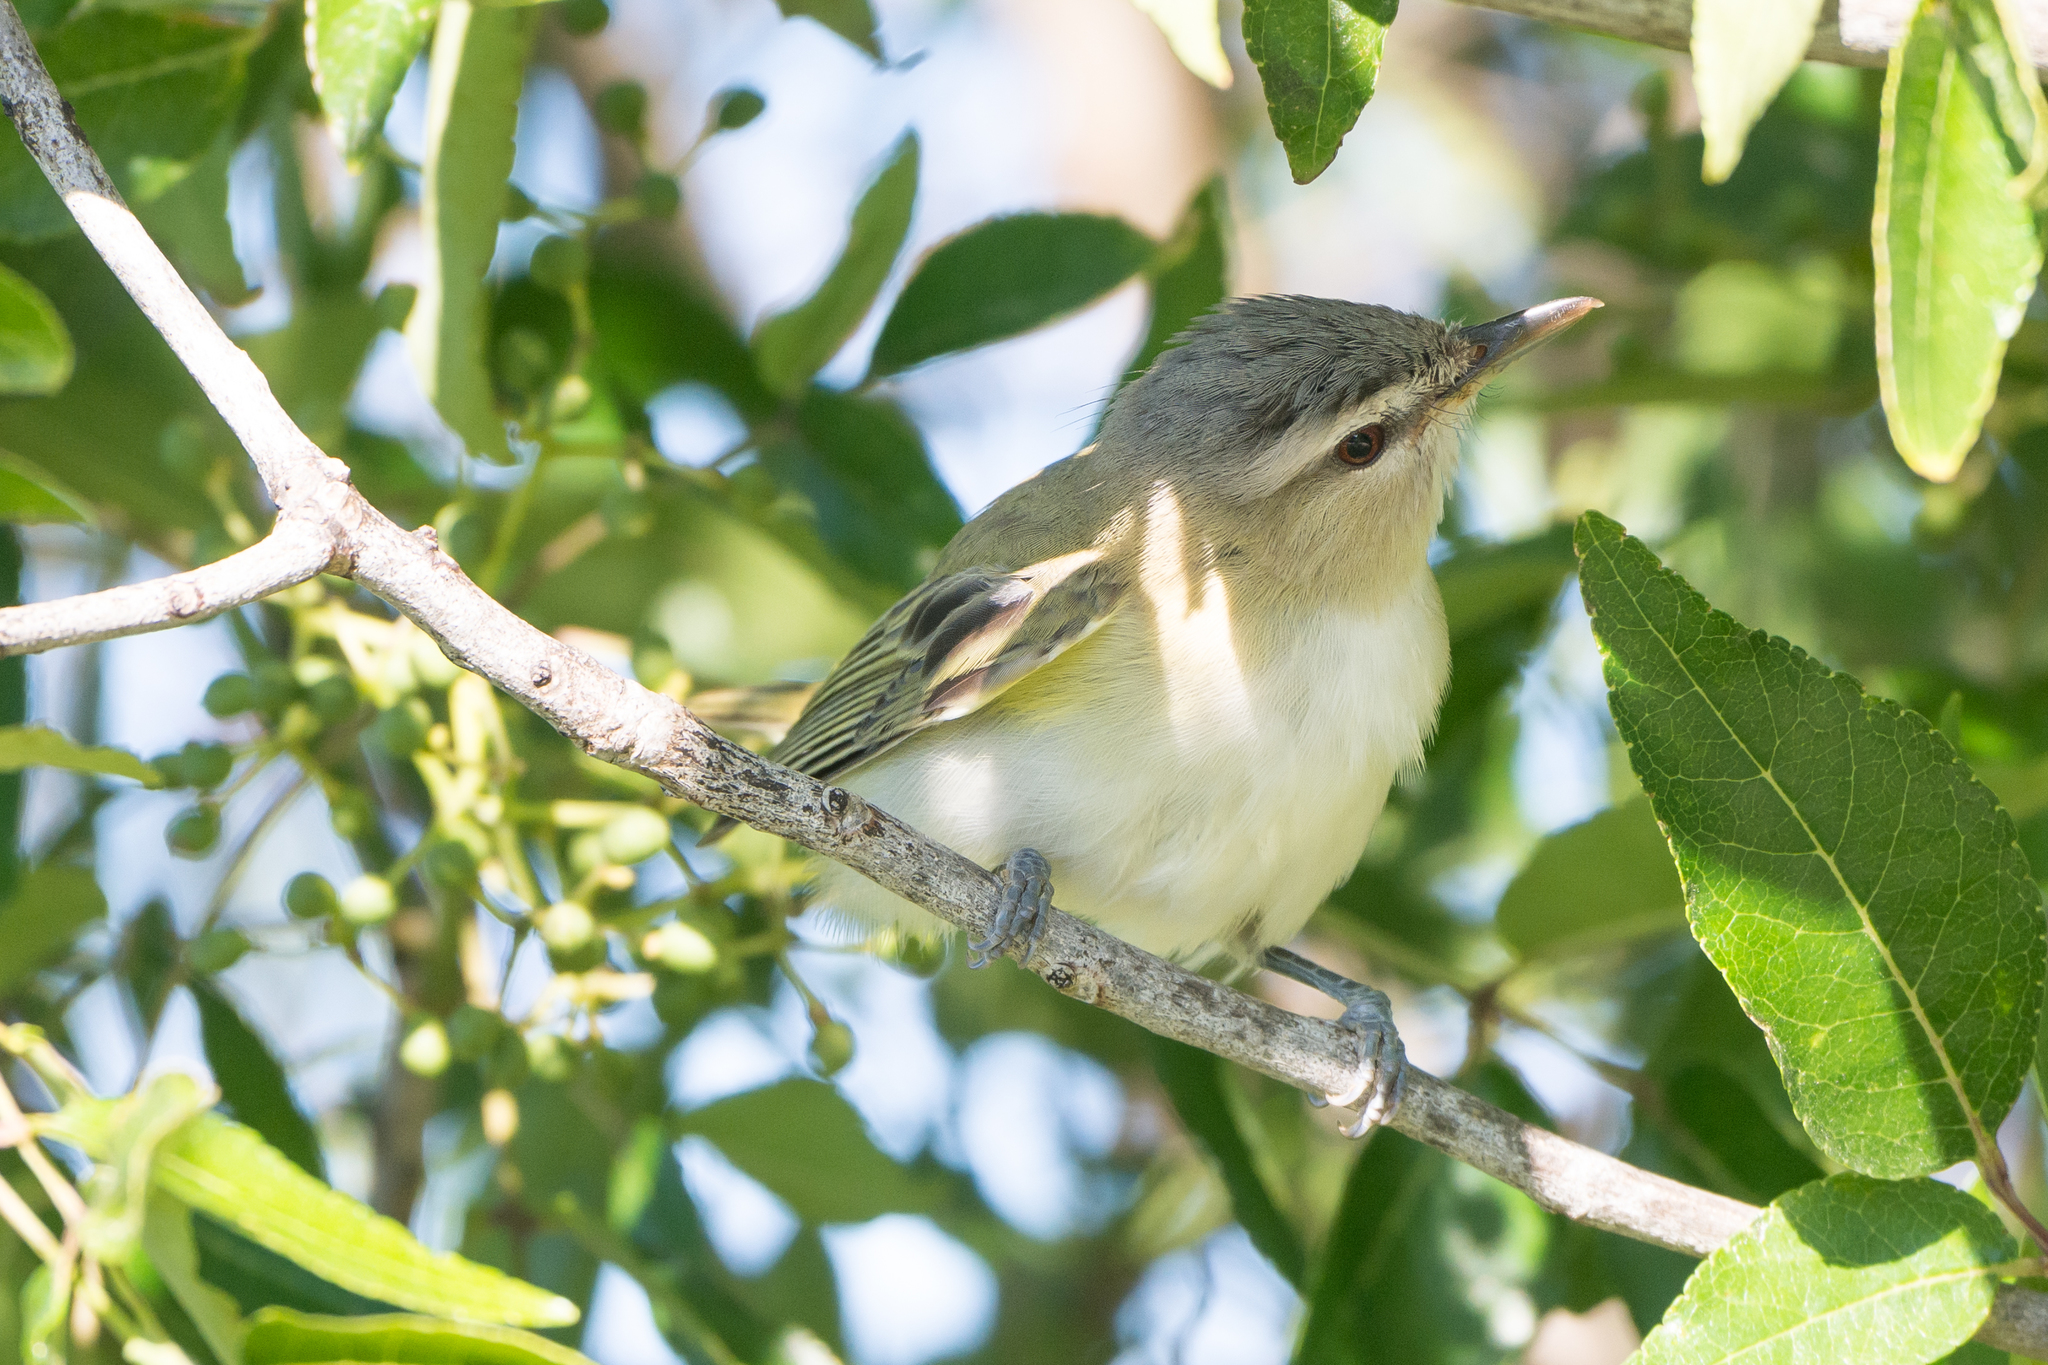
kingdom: Animalia
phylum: Chordata
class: Aves
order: Passeriformes
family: Vireonidae
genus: Vireo
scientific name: Vireo olivaceus
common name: Red-eyed vireo
